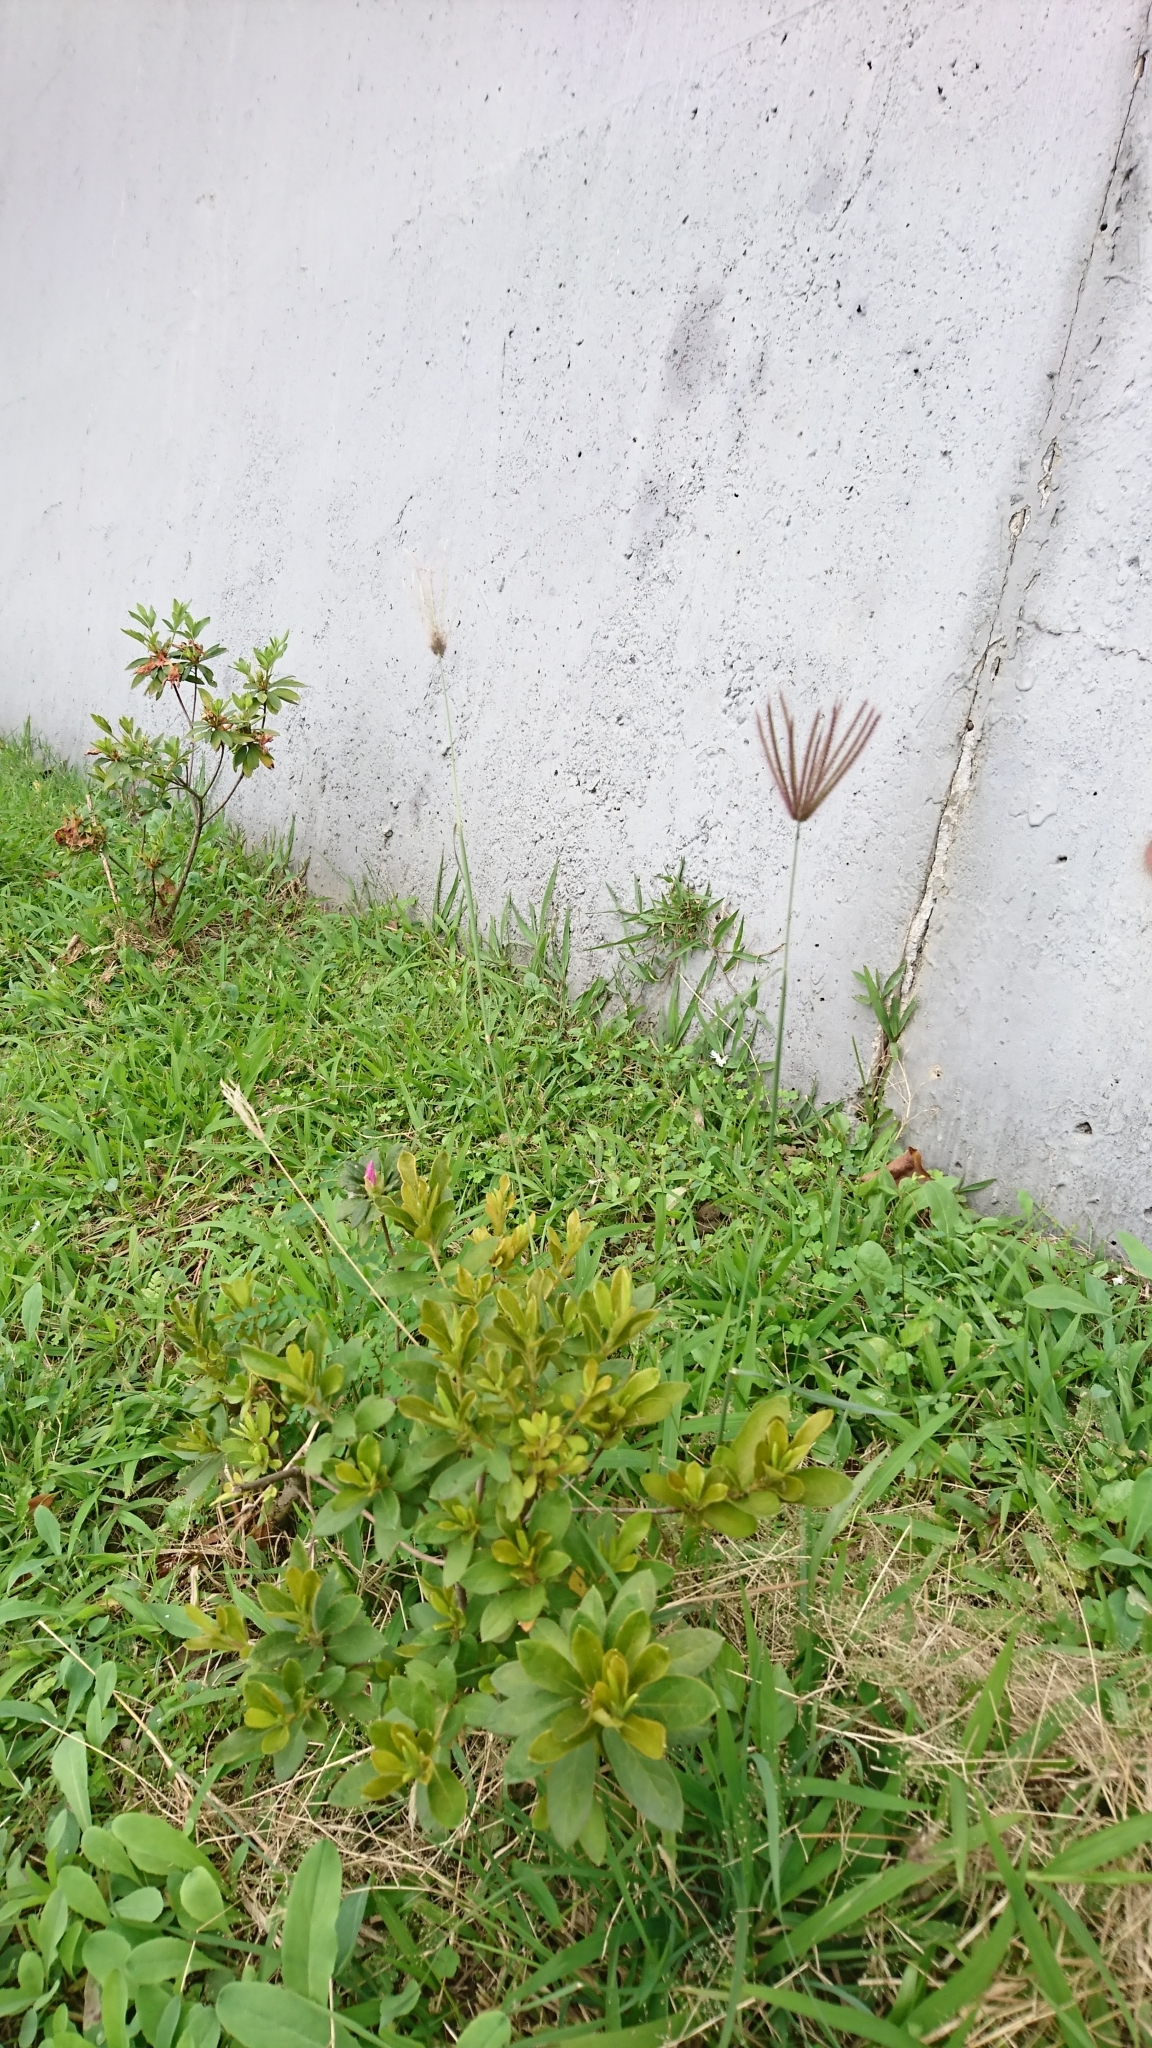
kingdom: Plantae
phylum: Tracheophyta
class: Liliopsida
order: Poales
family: Poaceae
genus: Chloris
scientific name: Chloris barbata
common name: Swollen fingergrass
